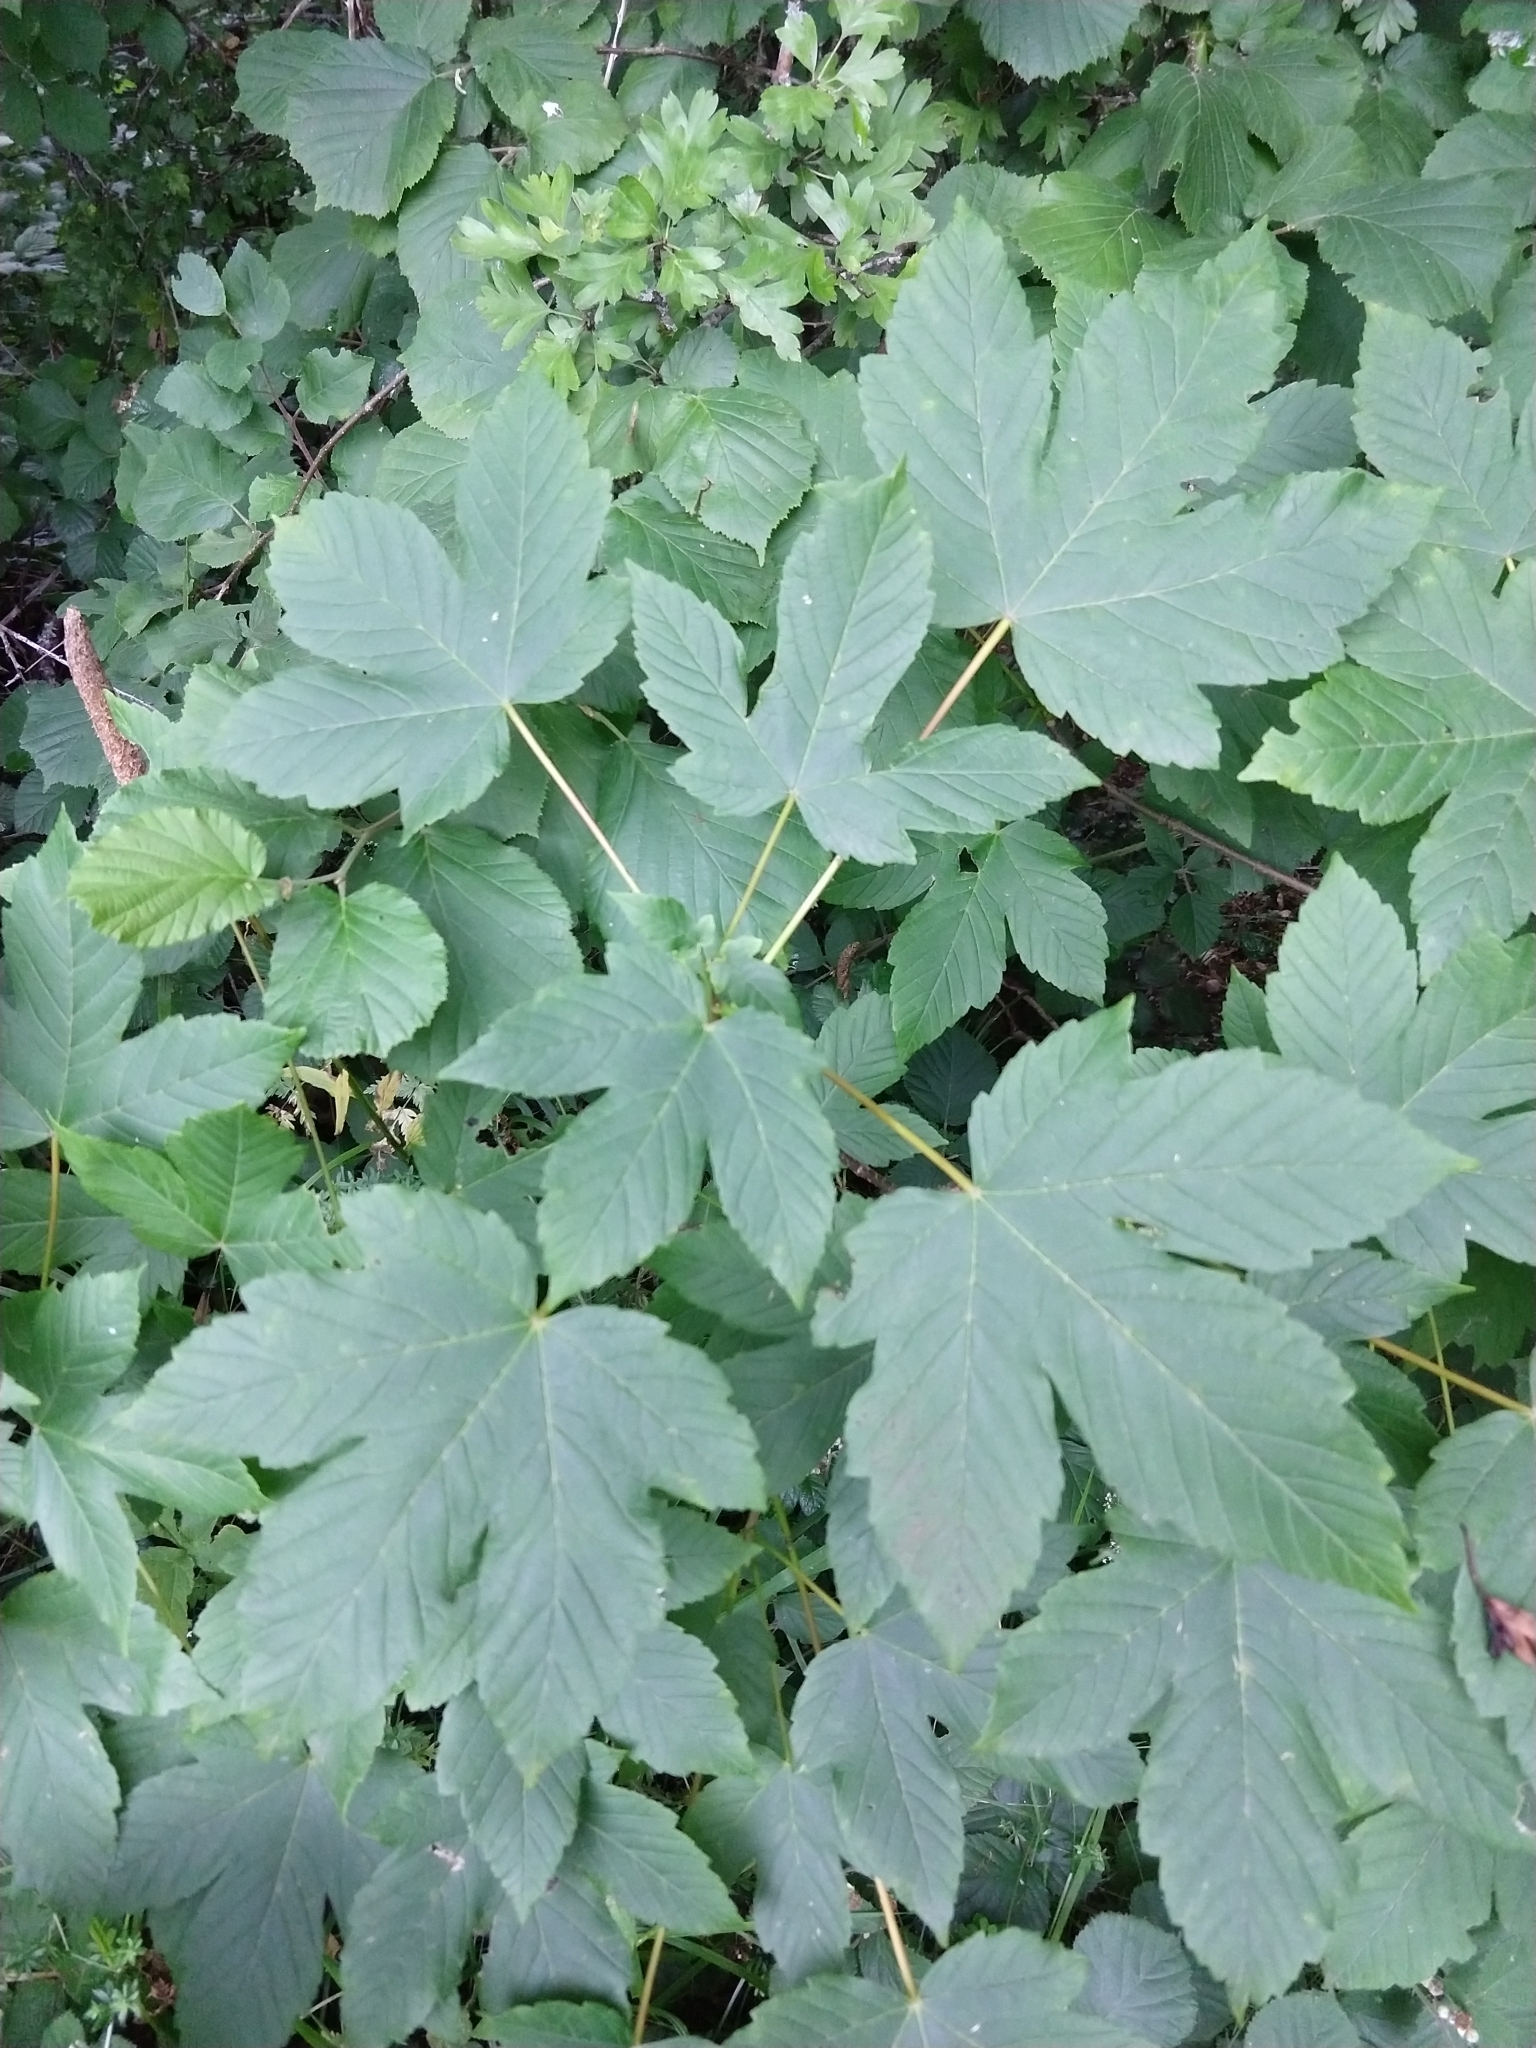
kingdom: Plantae
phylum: Tracheophyta
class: Magnoliopsida
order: Sapindales
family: Sapindaceae
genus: Acer
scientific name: Acer pseudoplatanus
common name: Sycamore
